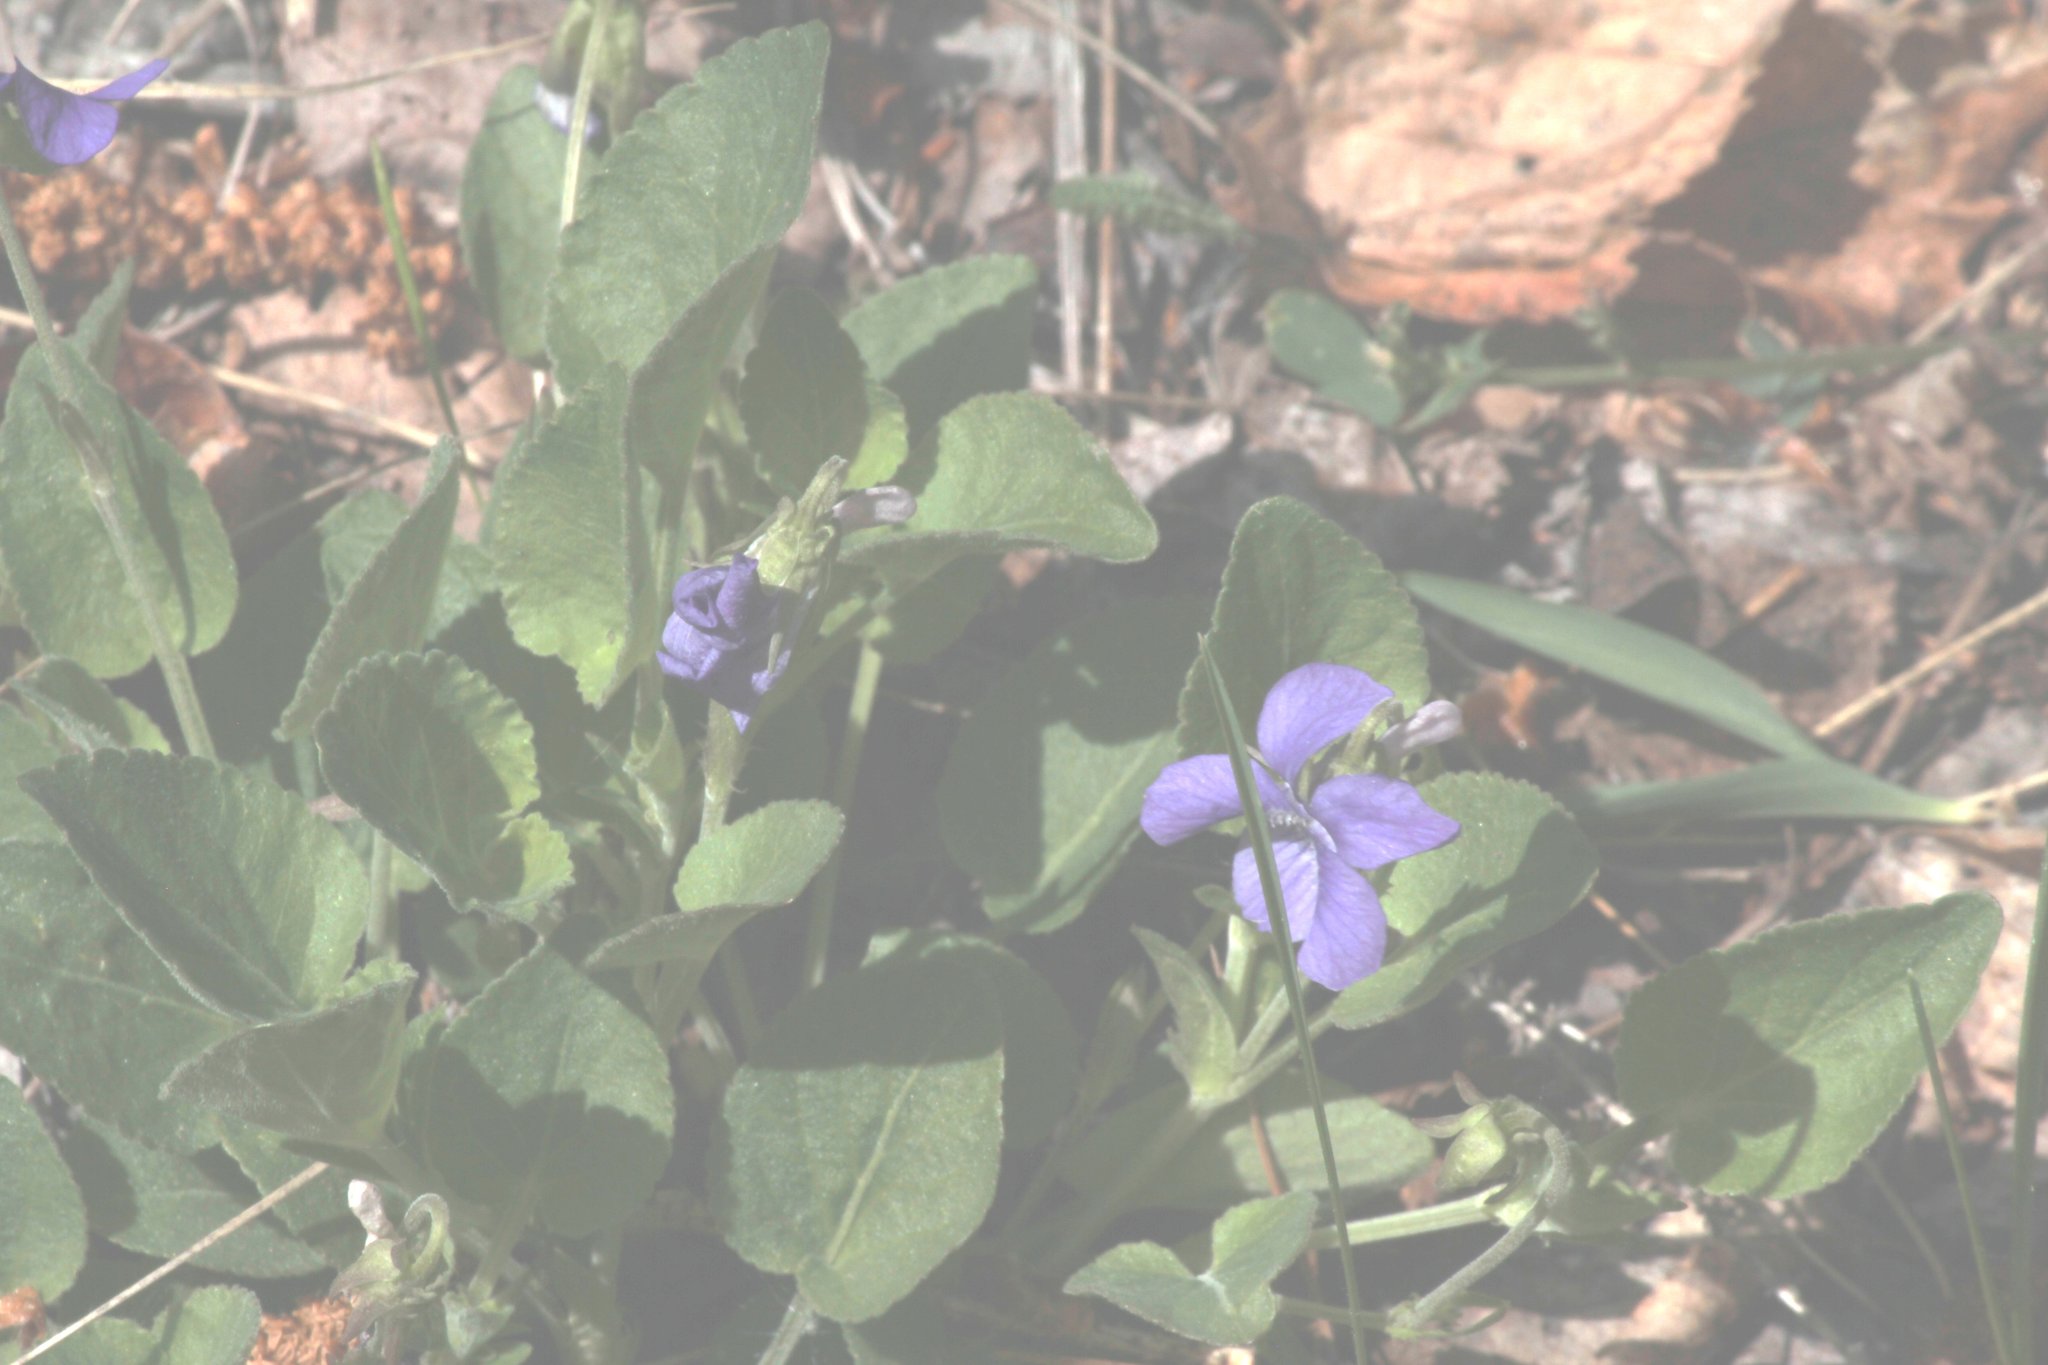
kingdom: Plantae
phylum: Tracheophyta
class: Magnoliopsida
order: Malpighiales
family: Violaceae
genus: Viola
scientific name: Viola adunca
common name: Sand violet
